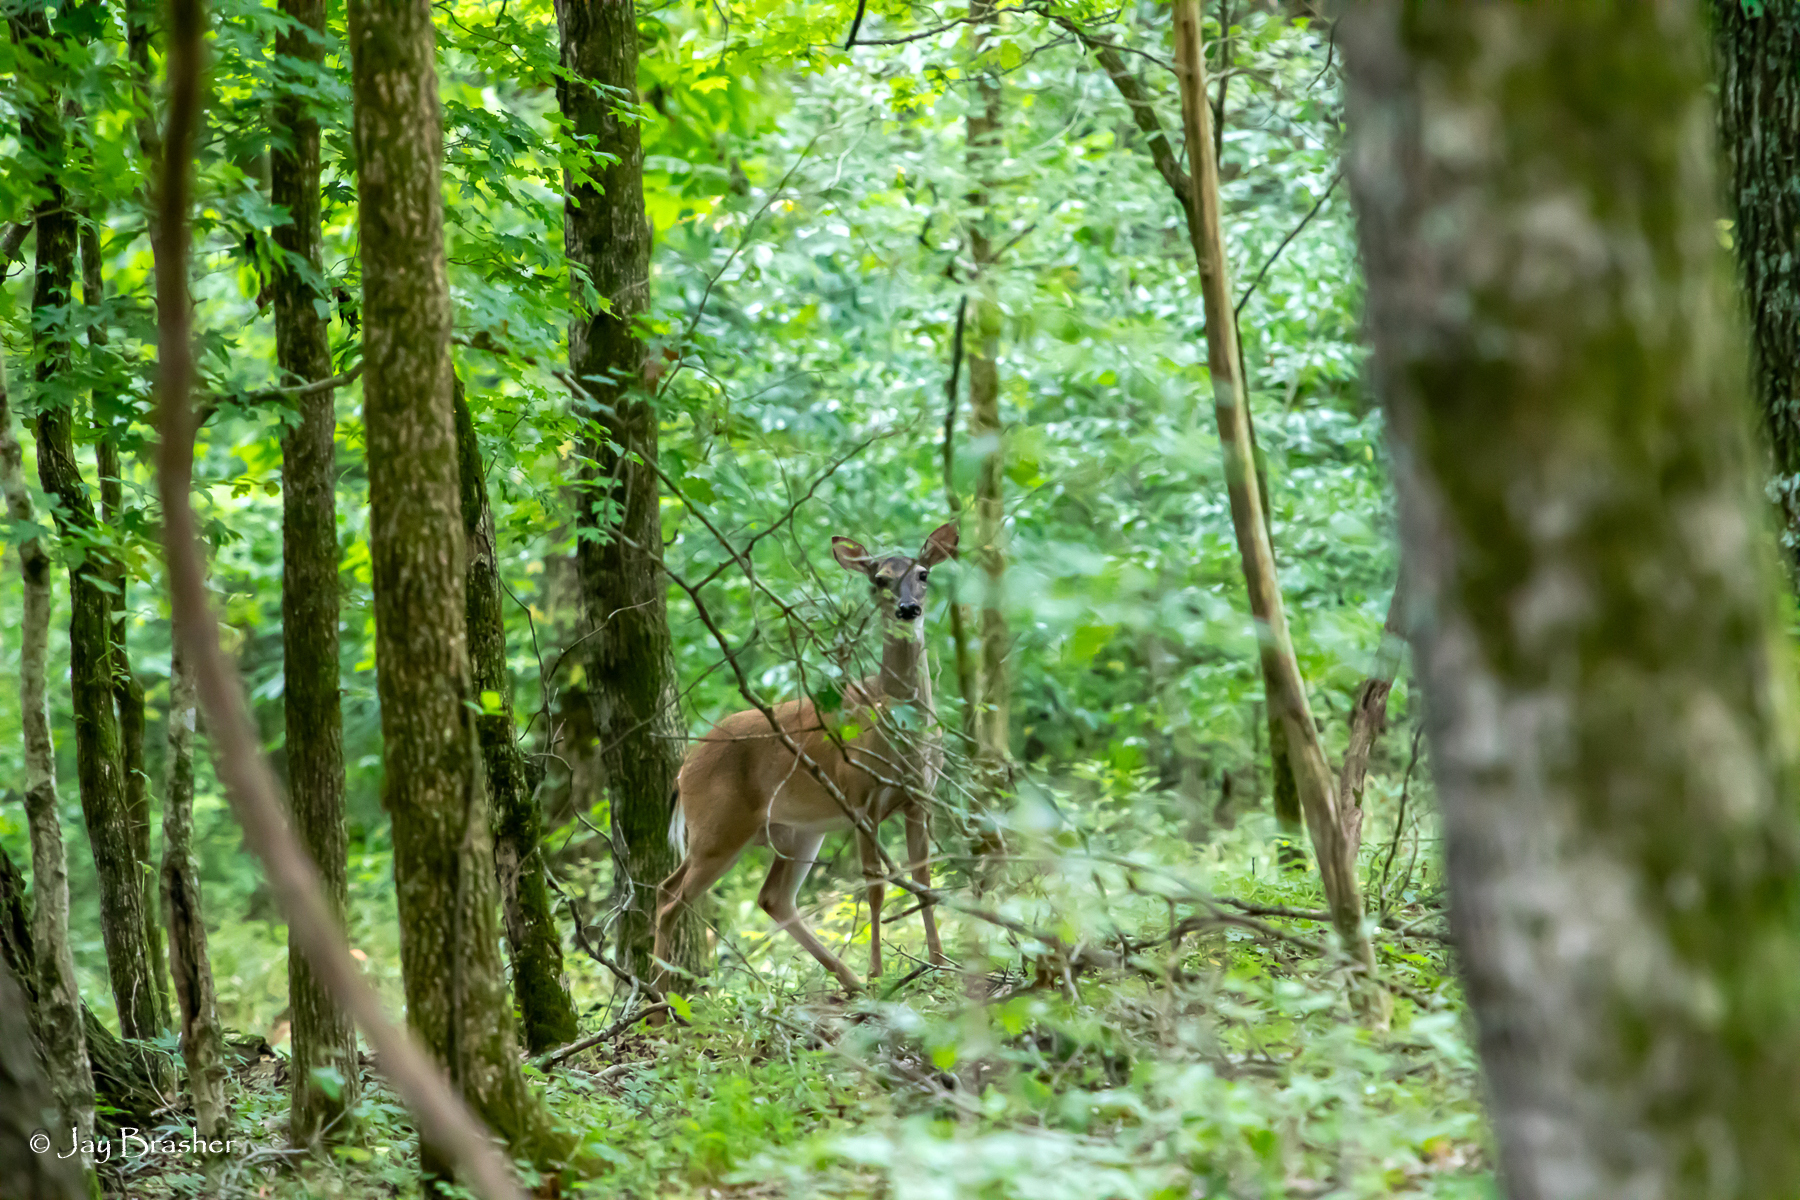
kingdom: Animalia
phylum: Chordata
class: Mammalia
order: Artiodactyla
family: Cervidae
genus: Odocoileus
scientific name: Odocoileus virginianus
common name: White-tailed deer
